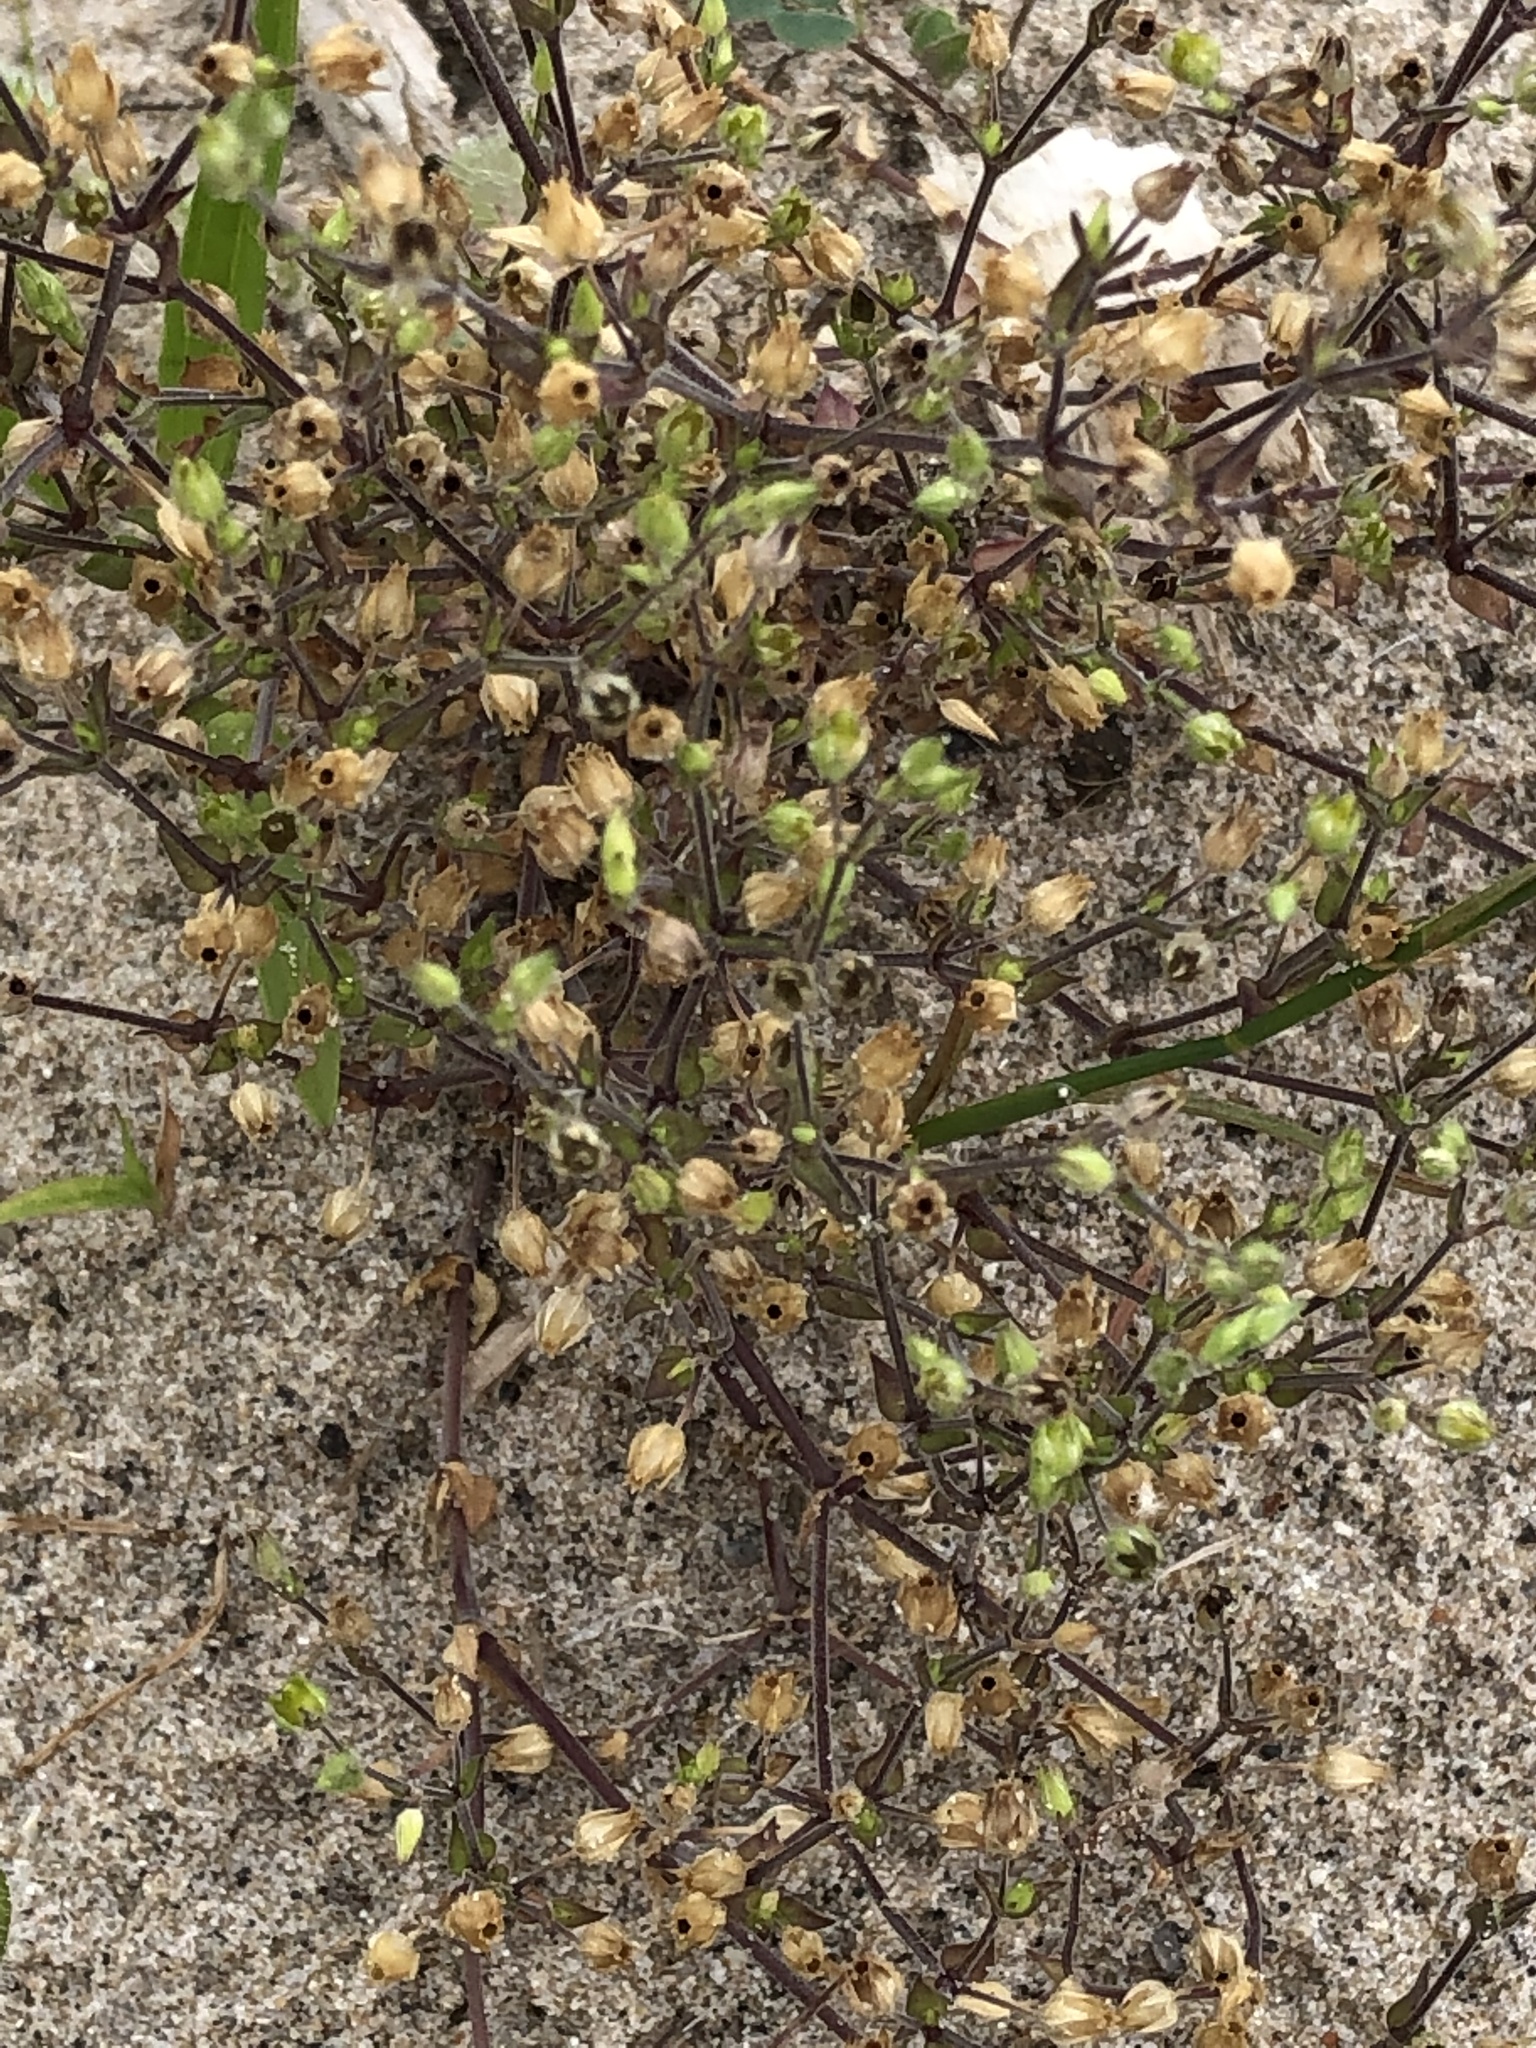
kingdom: Plantae
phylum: Tracheophyta
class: Magnoliopsida
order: Caryophyllales
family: Caryophyllaceae
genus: Arenaria
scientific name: Arenaria serpyllifolia
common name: Thyme-leaved sandwort
